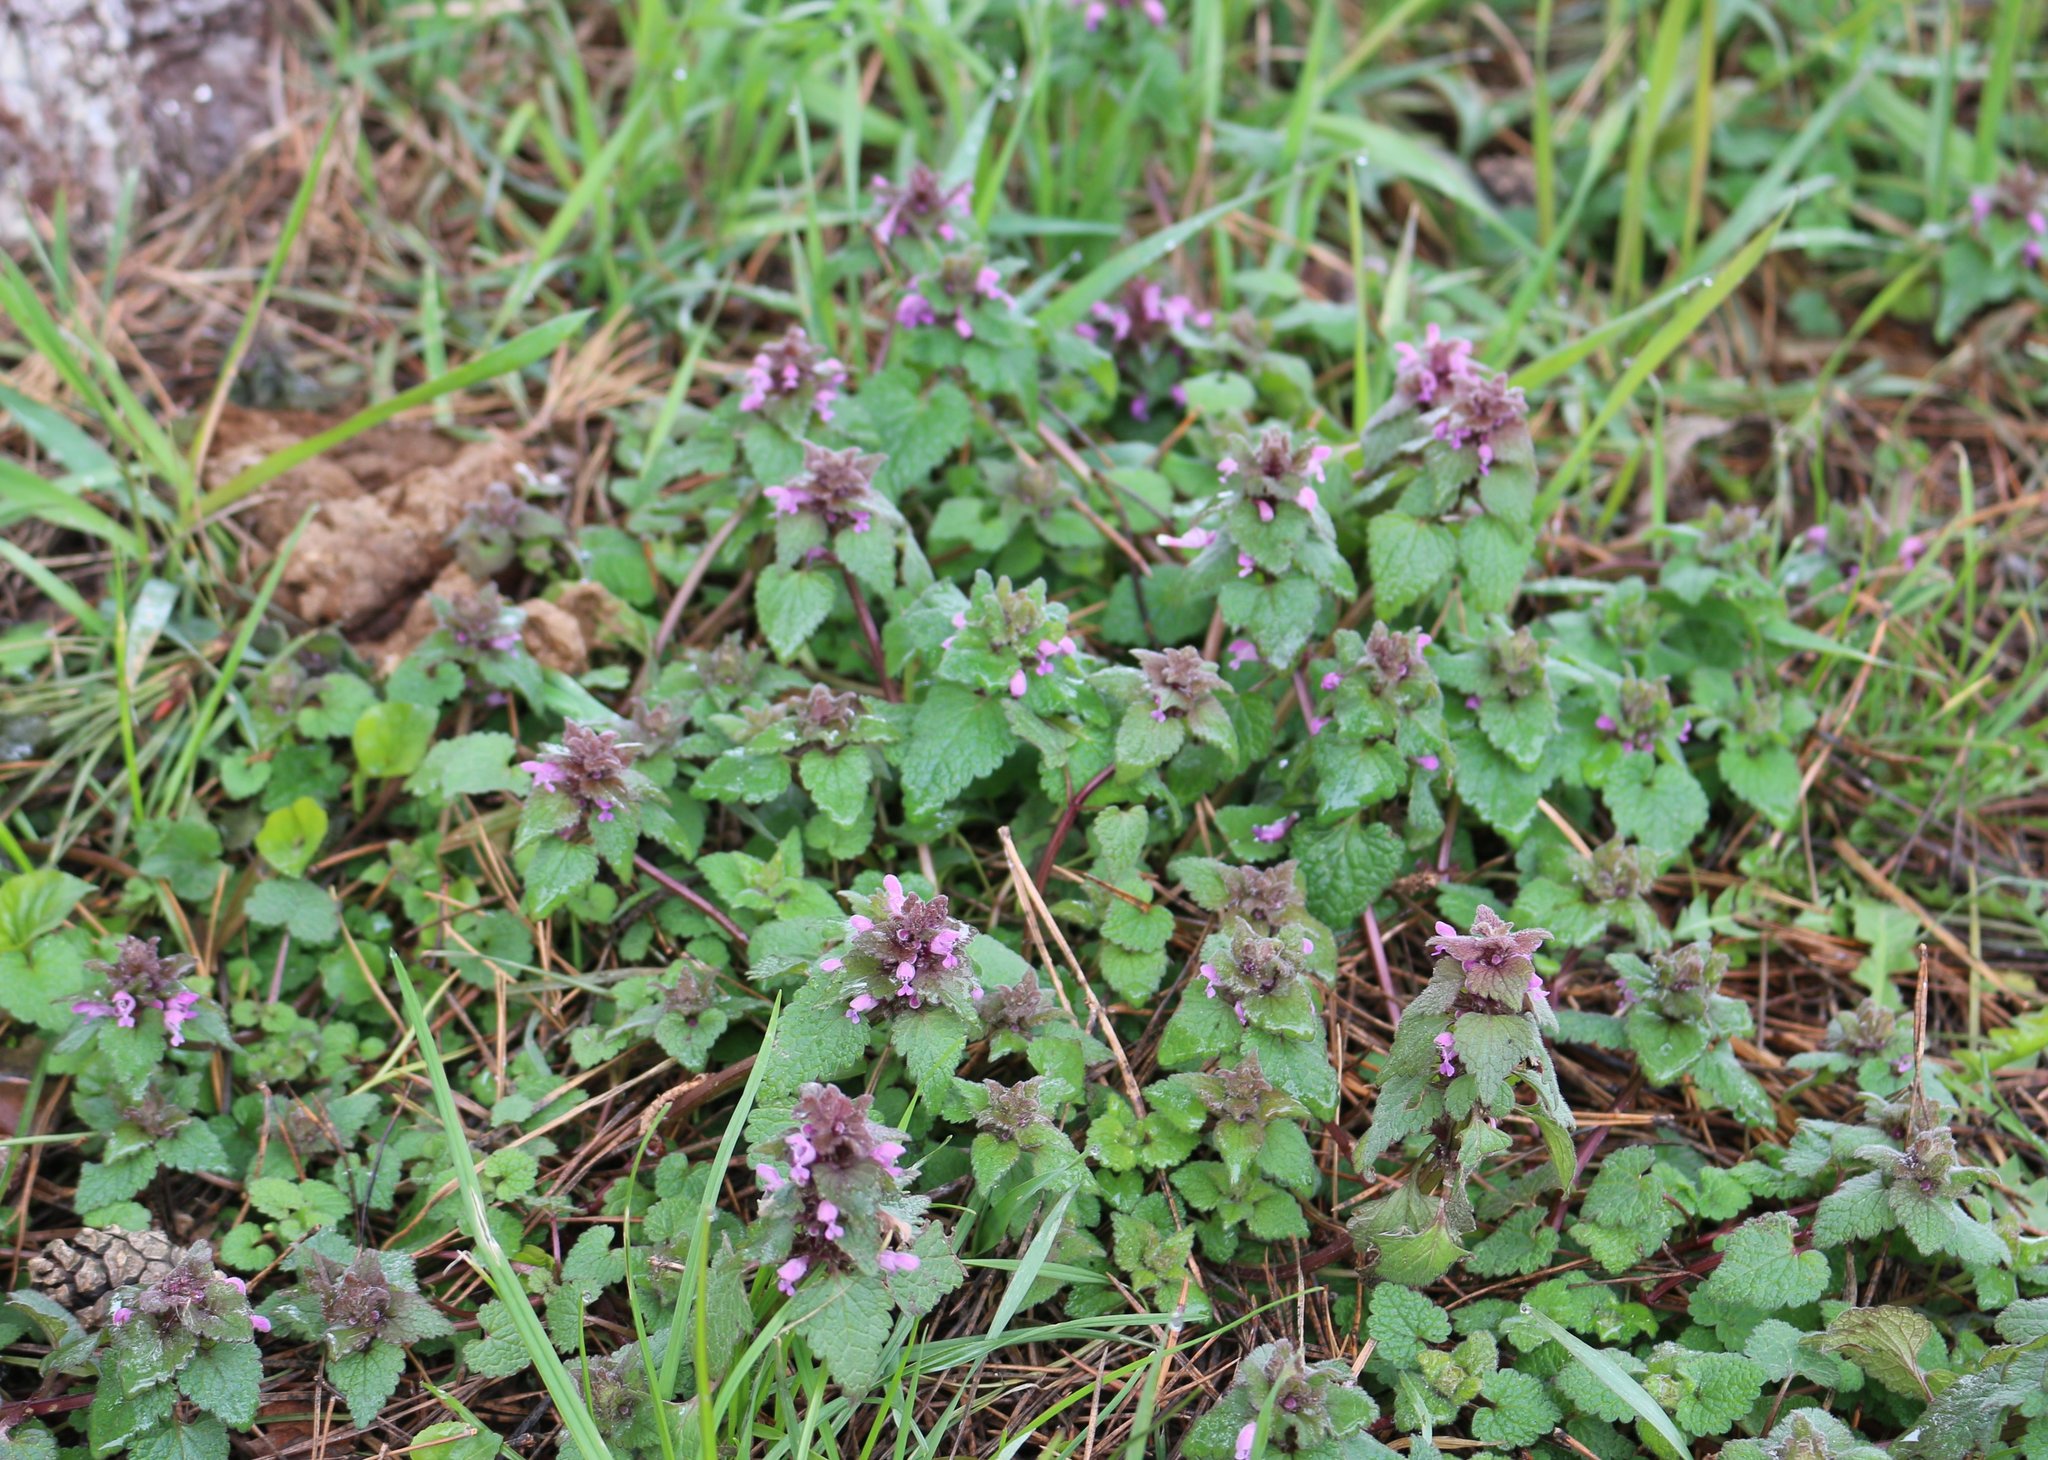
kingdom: Plantae
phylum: Tracheophyta
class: Magnoliopsida
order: Lamiales
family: Lamiaceae
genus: Lamium
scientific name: Lamium purpureum
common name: Red dead-nettle
